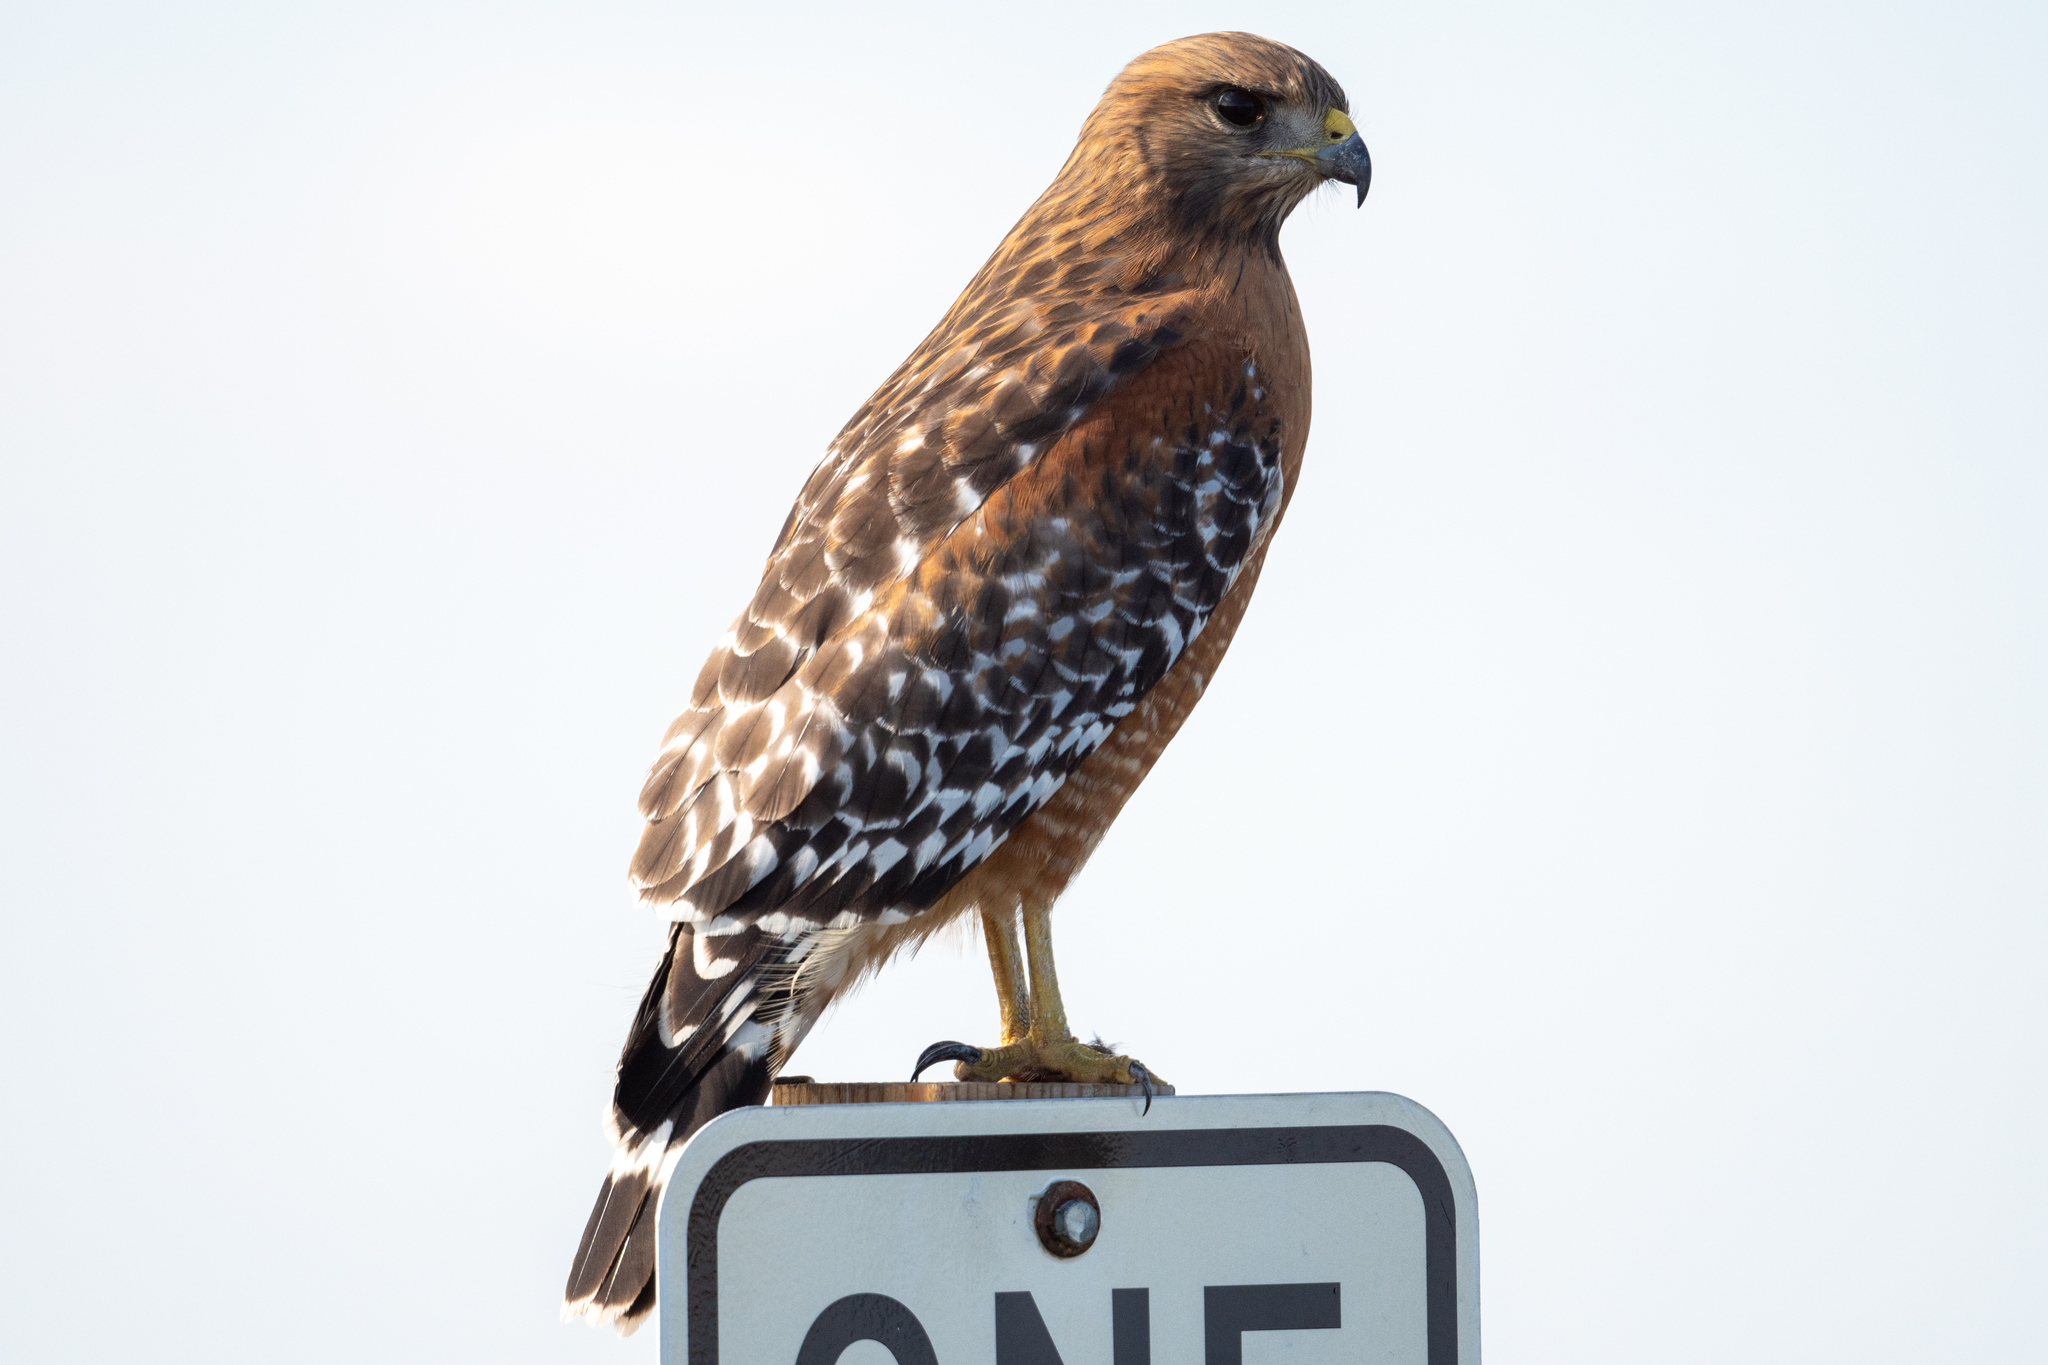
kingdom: Animalia
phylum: Chordata
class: Aves
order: Accipitriformes
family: Accipitridae
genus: Buteo
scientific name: Buteo lineatus
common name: Red-shouldered hawk
